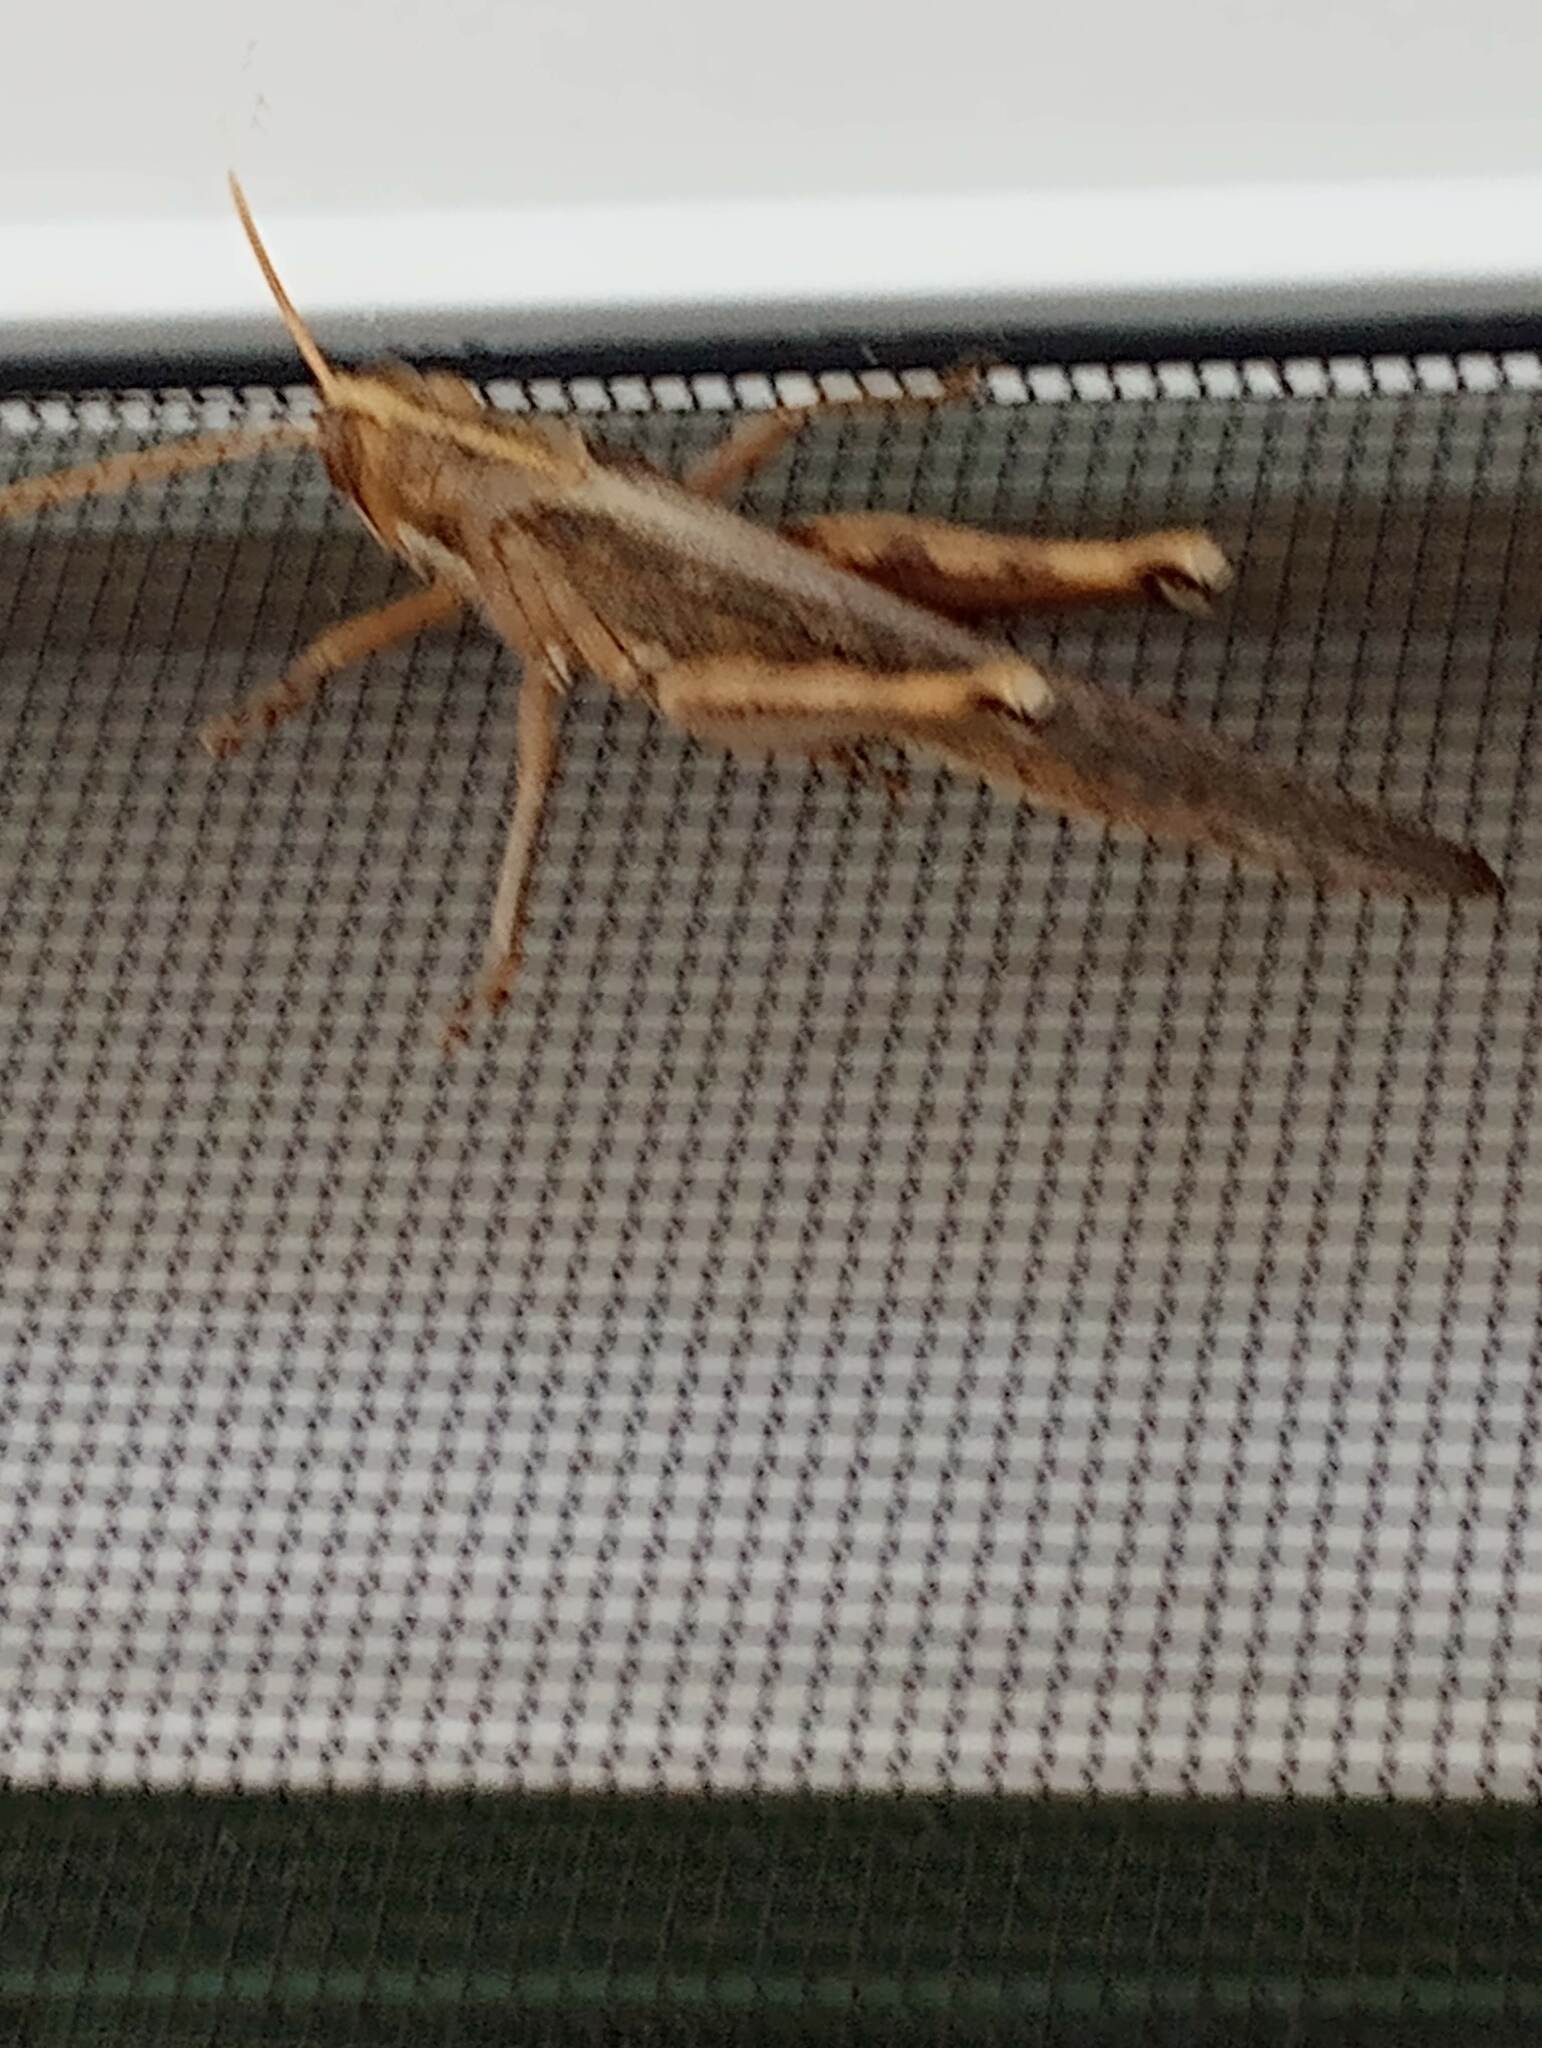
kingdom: Animalia
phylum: Arthropoda
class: Insecta
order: Orthoptera
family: Acrididae
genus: Schistocerca
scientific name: Schistocerca nitens
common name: Vagrant grasshopper
